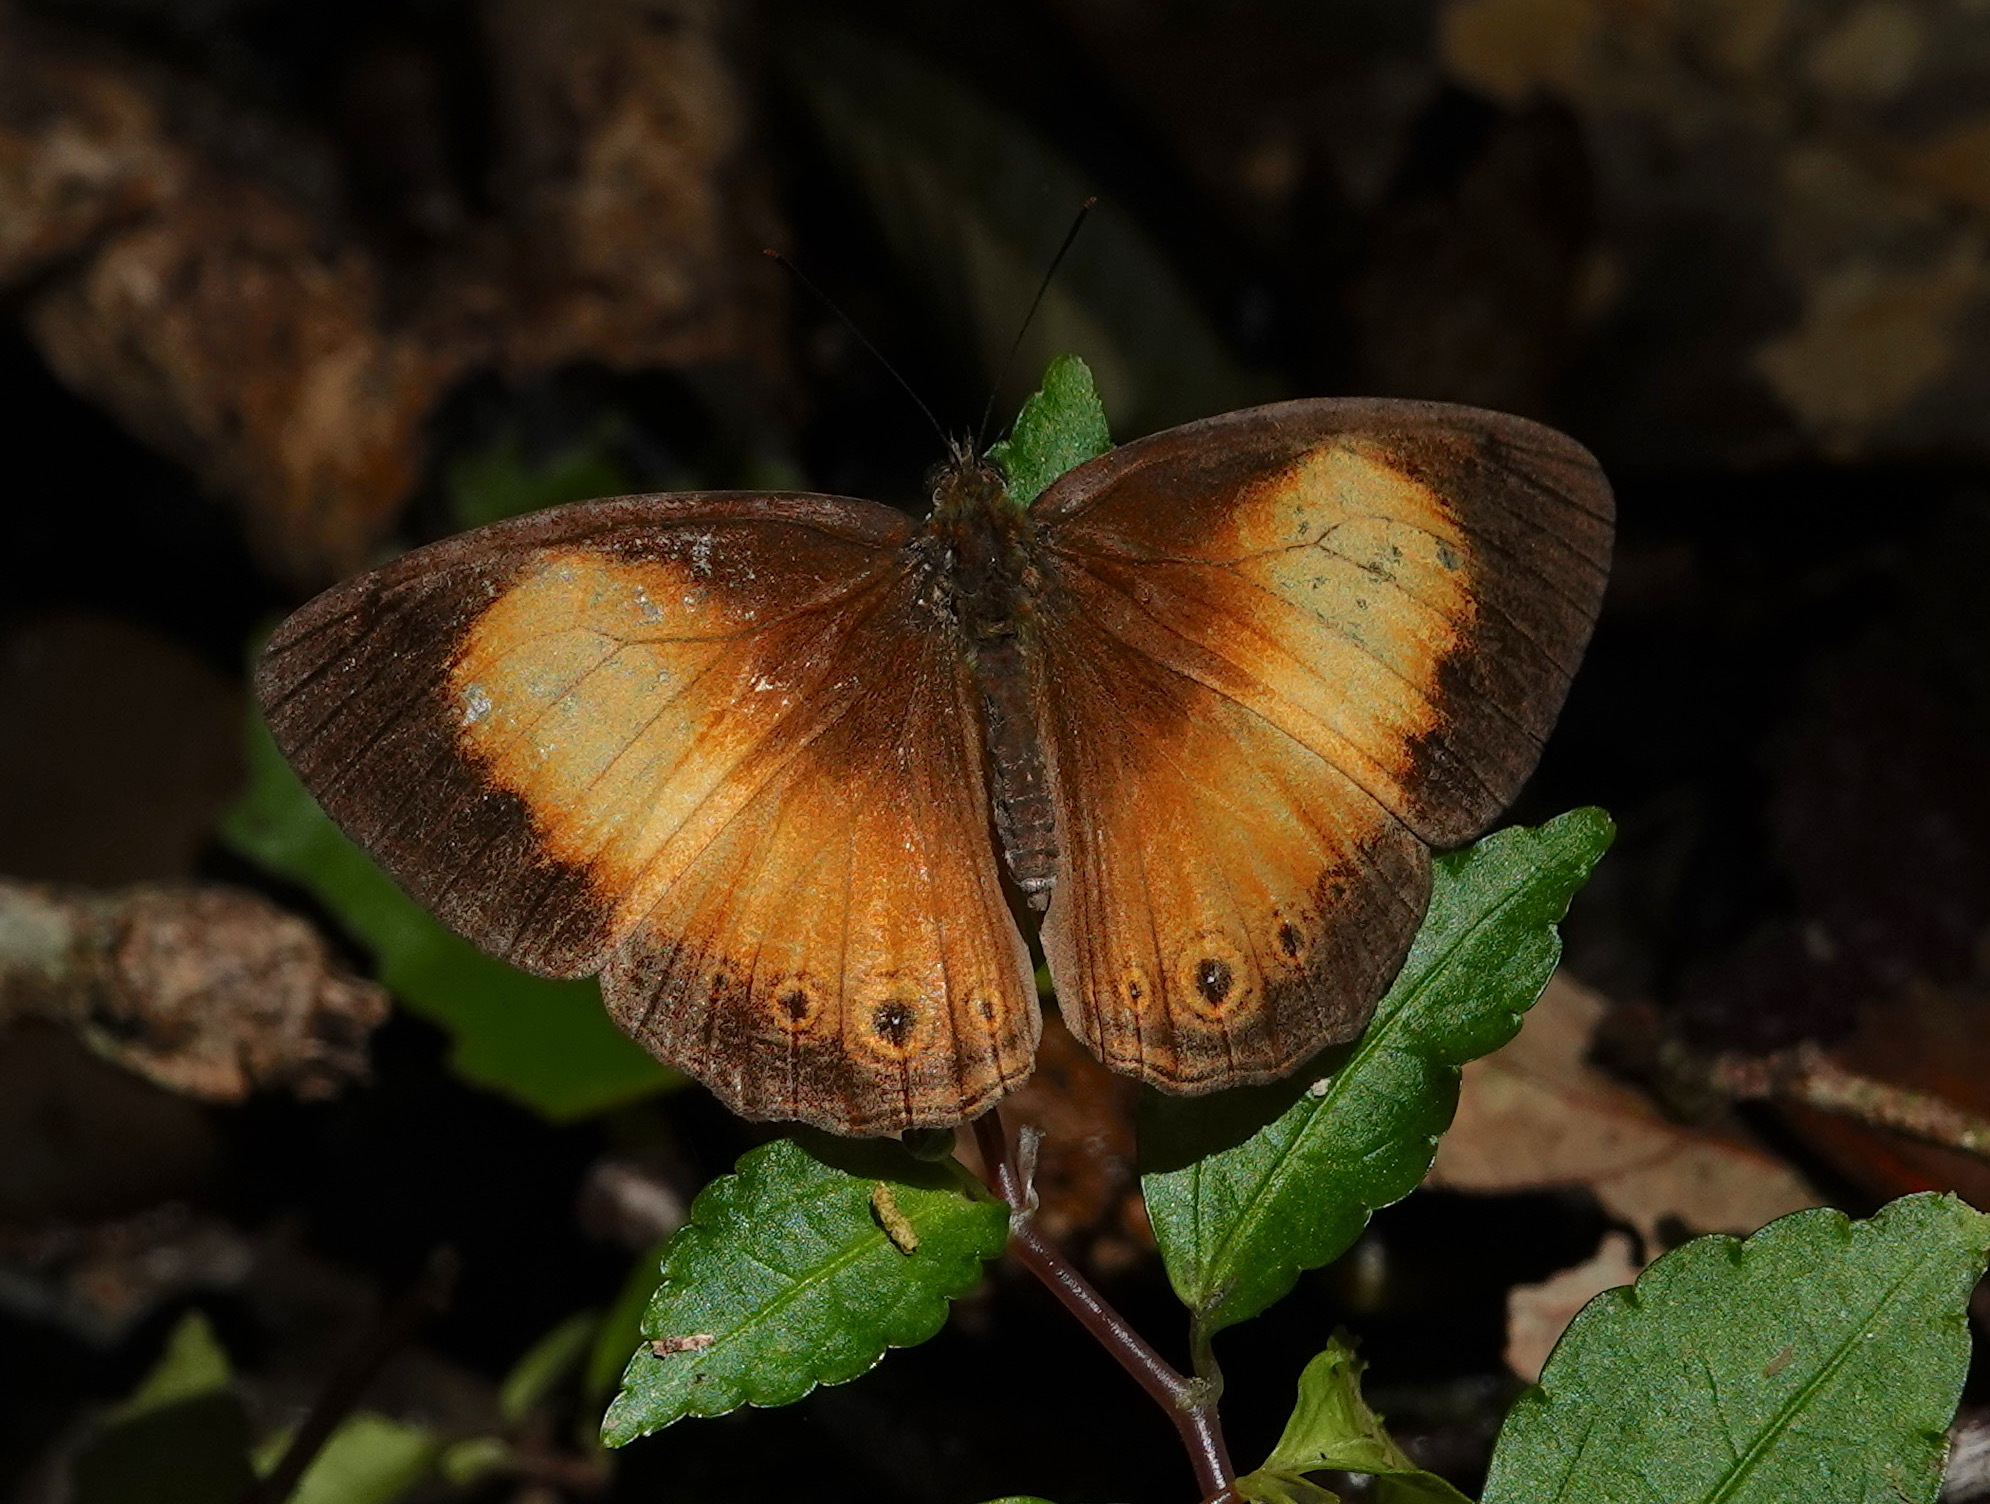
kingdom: Animalia
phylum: Arthropoda
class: Insecta
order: Lepidoptera
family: Nymphalidae
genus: Mycalesis
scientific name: Mycalesis marginata
